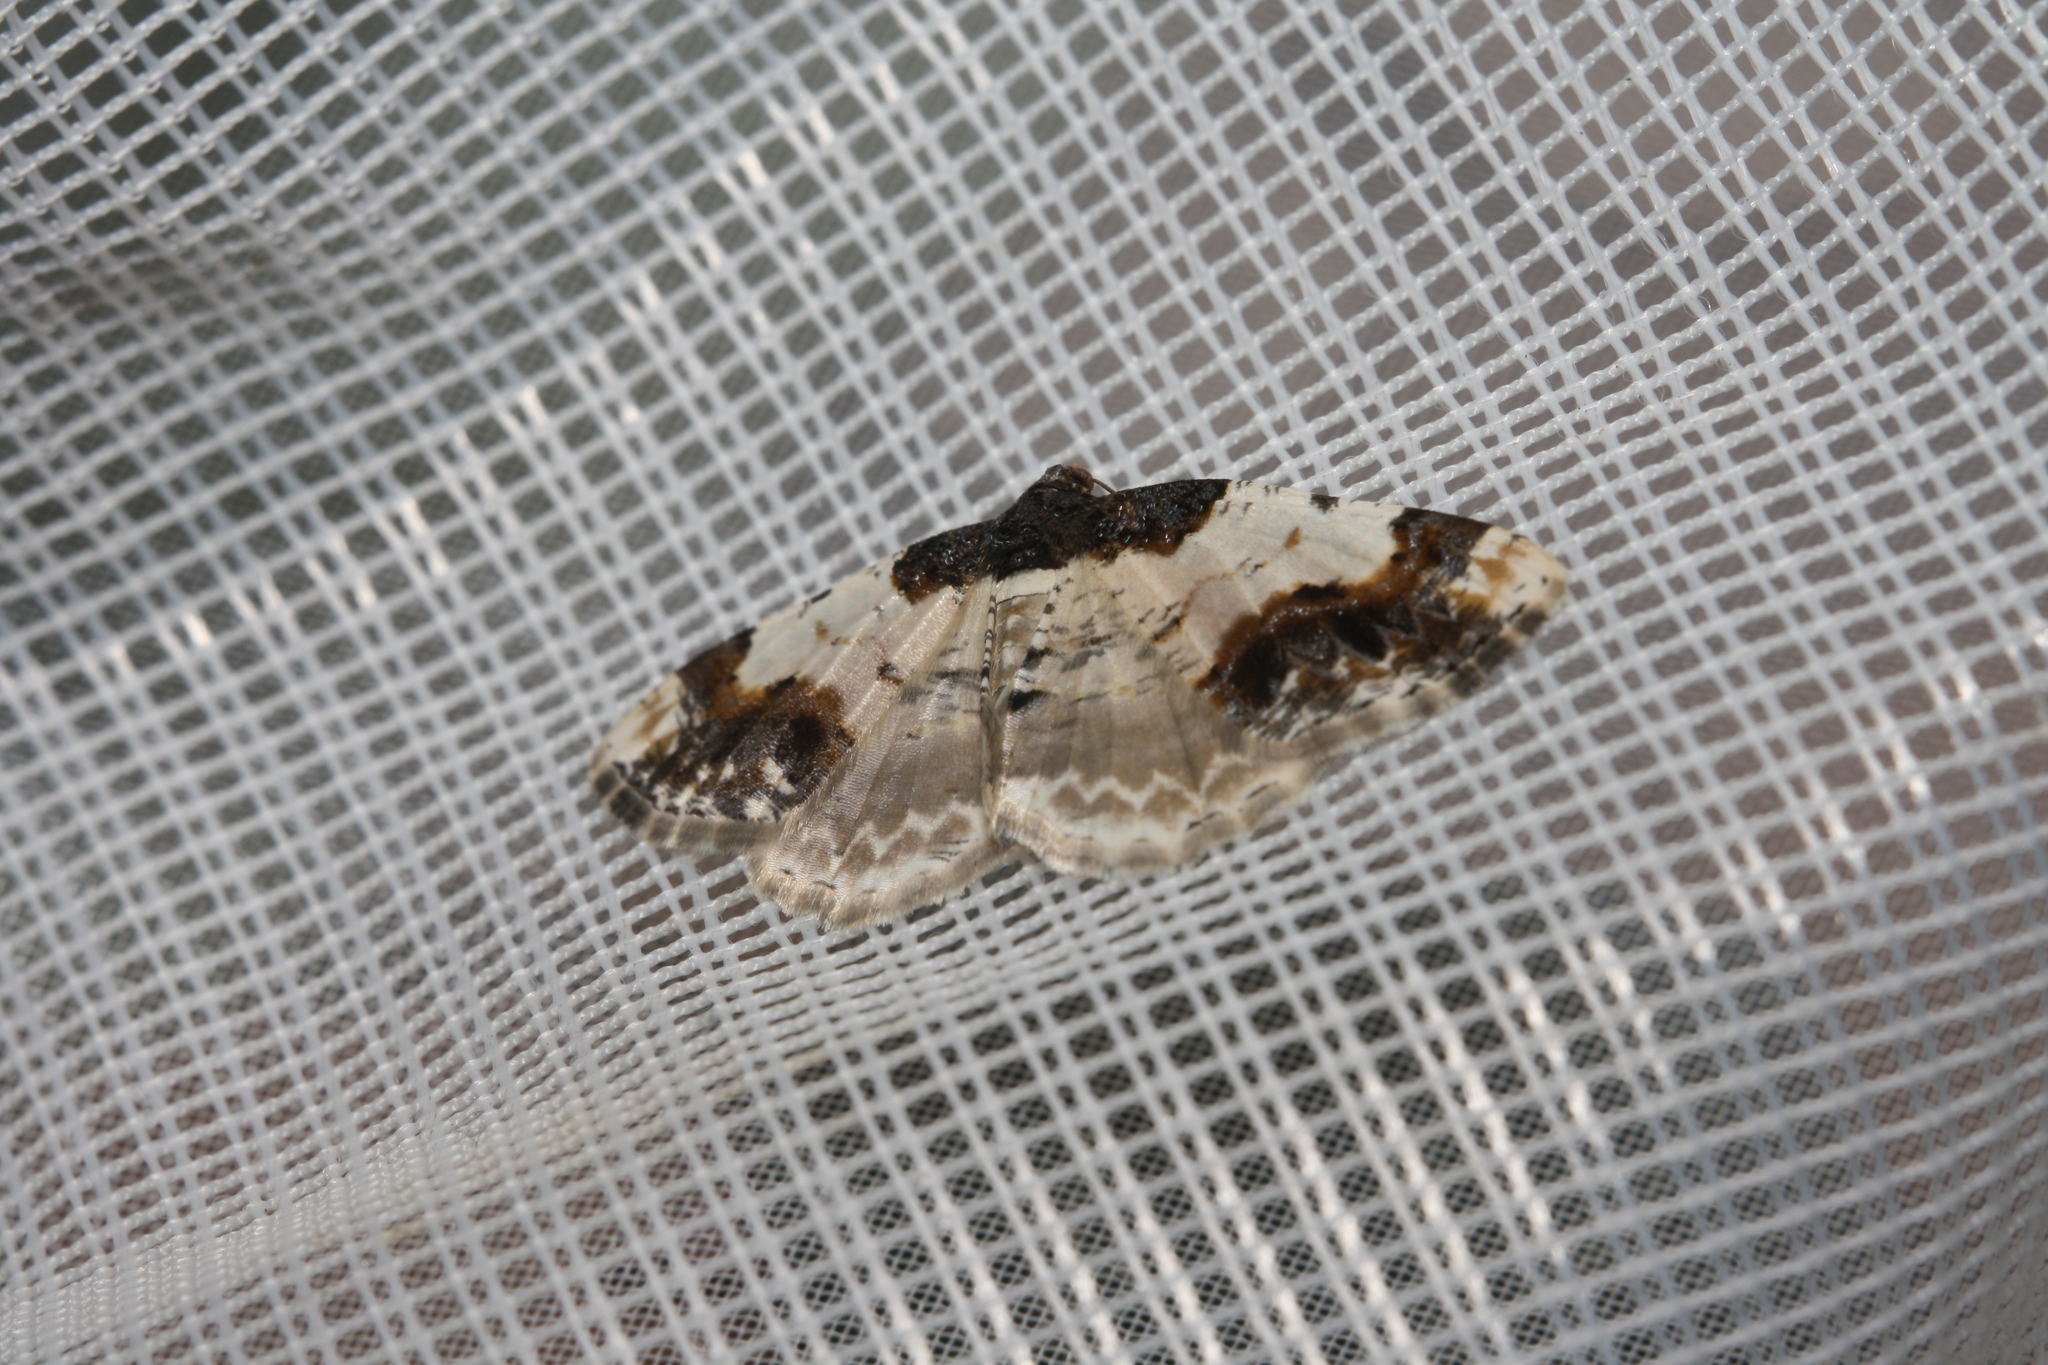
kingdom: Animalia
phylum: Arthropoda
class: Insecta
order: Lepidoptera
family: Geometridae
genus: Ligdia
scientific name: Ligdia adustata
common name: Scorched carpet
